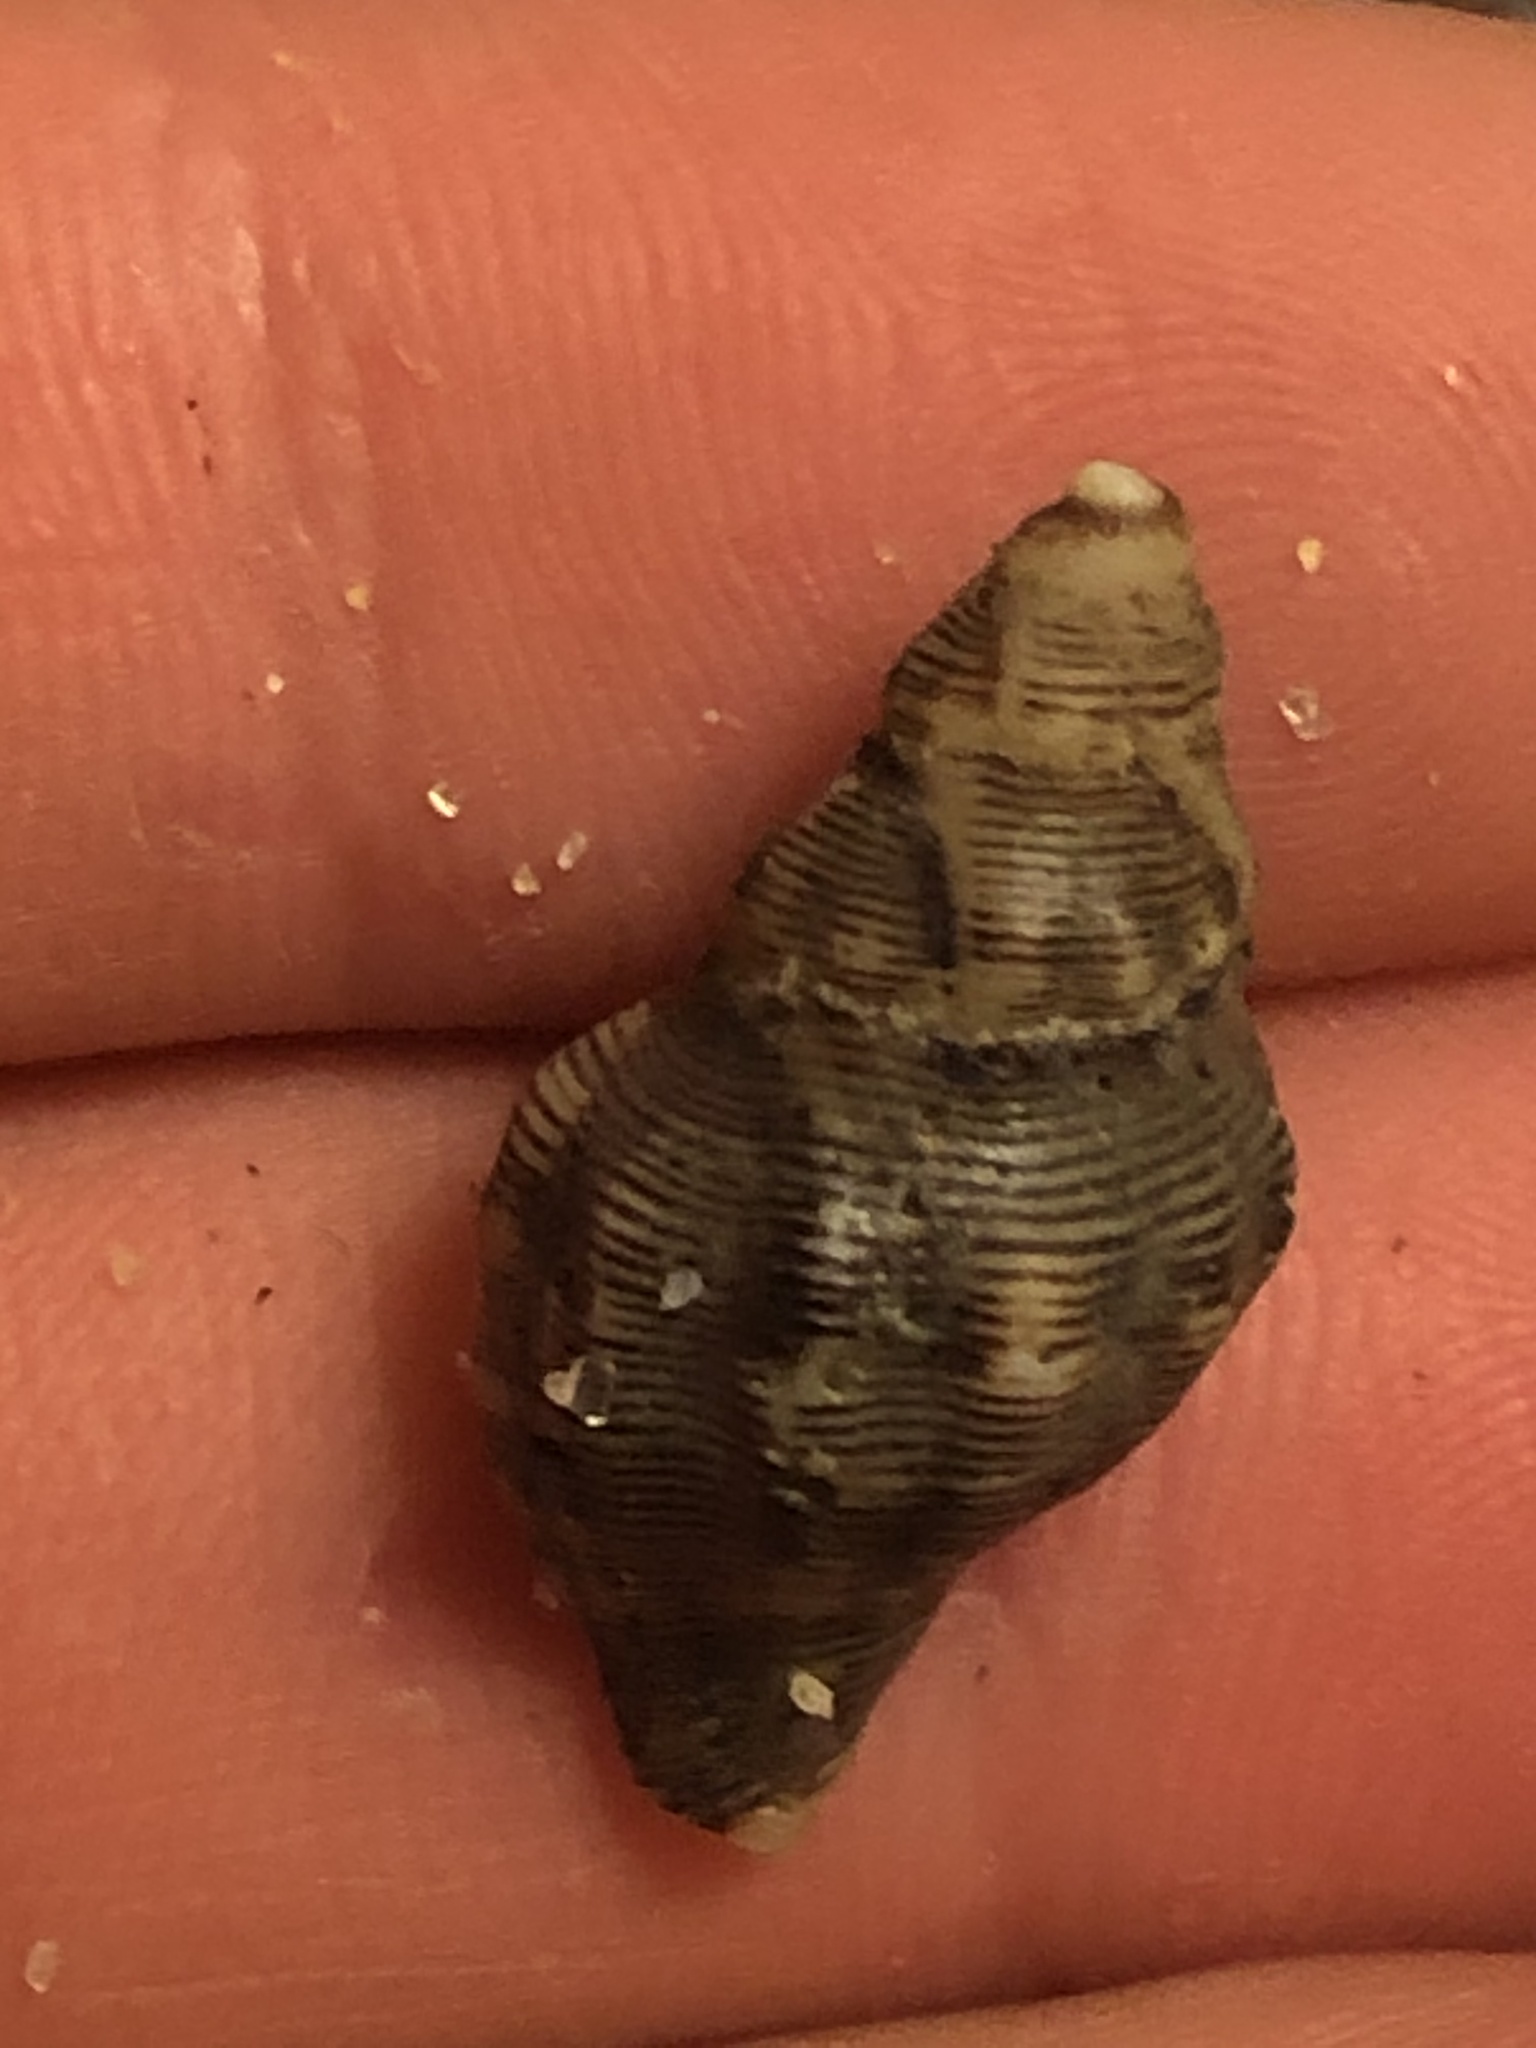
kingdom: Animalia
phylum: Mollusca
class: Gastropoda
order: Neogastropoda
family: Muricidae
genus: Roperia
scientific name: Roperia poulsoni
